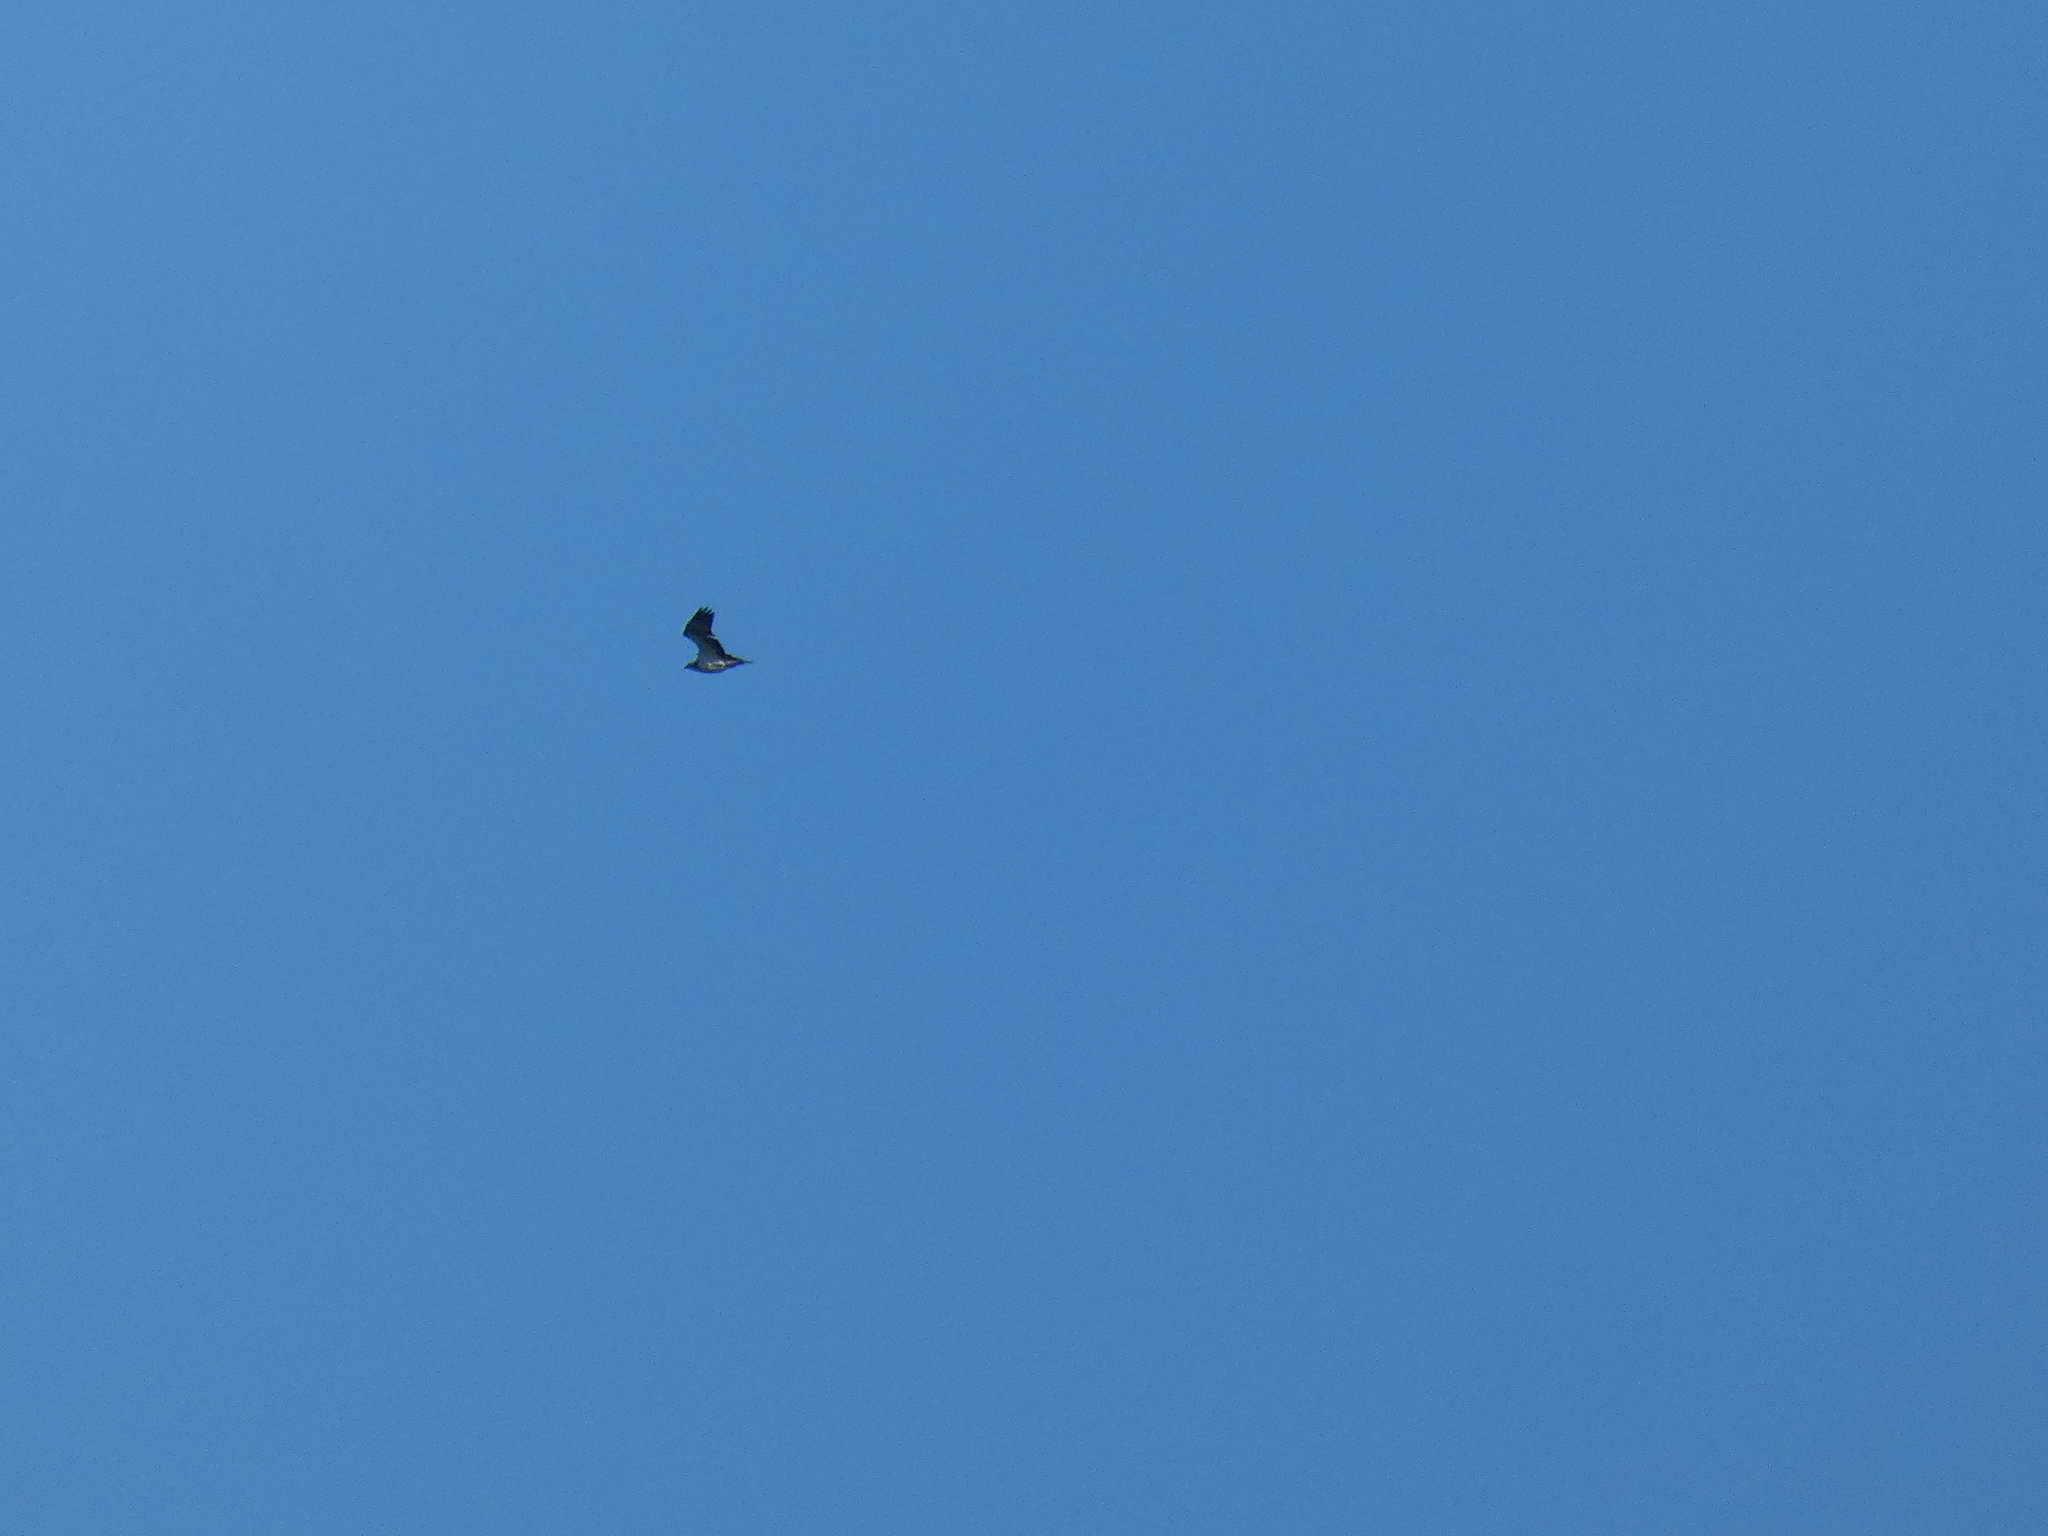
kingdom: Animalia
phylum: Chordata
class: Aves
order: Accipitriformes
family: Pandionidae
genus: Pandion
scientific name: Pandion haliaetus
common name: Osprey
